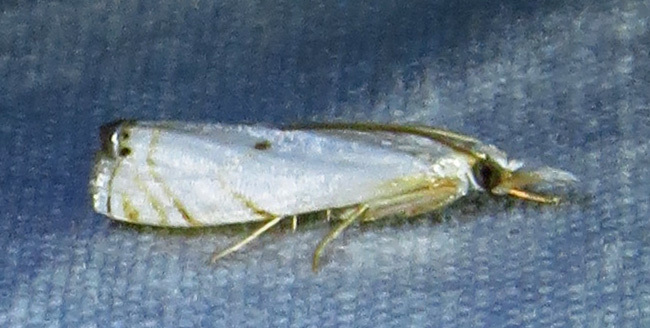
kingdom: Animalia
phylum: Arthropoda
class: Insecta
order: Lepidoptera
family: Crambidae
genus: Microcrambus
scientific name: Microcrambus biguttellus
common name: Gold-stripe grass-veneer moth
